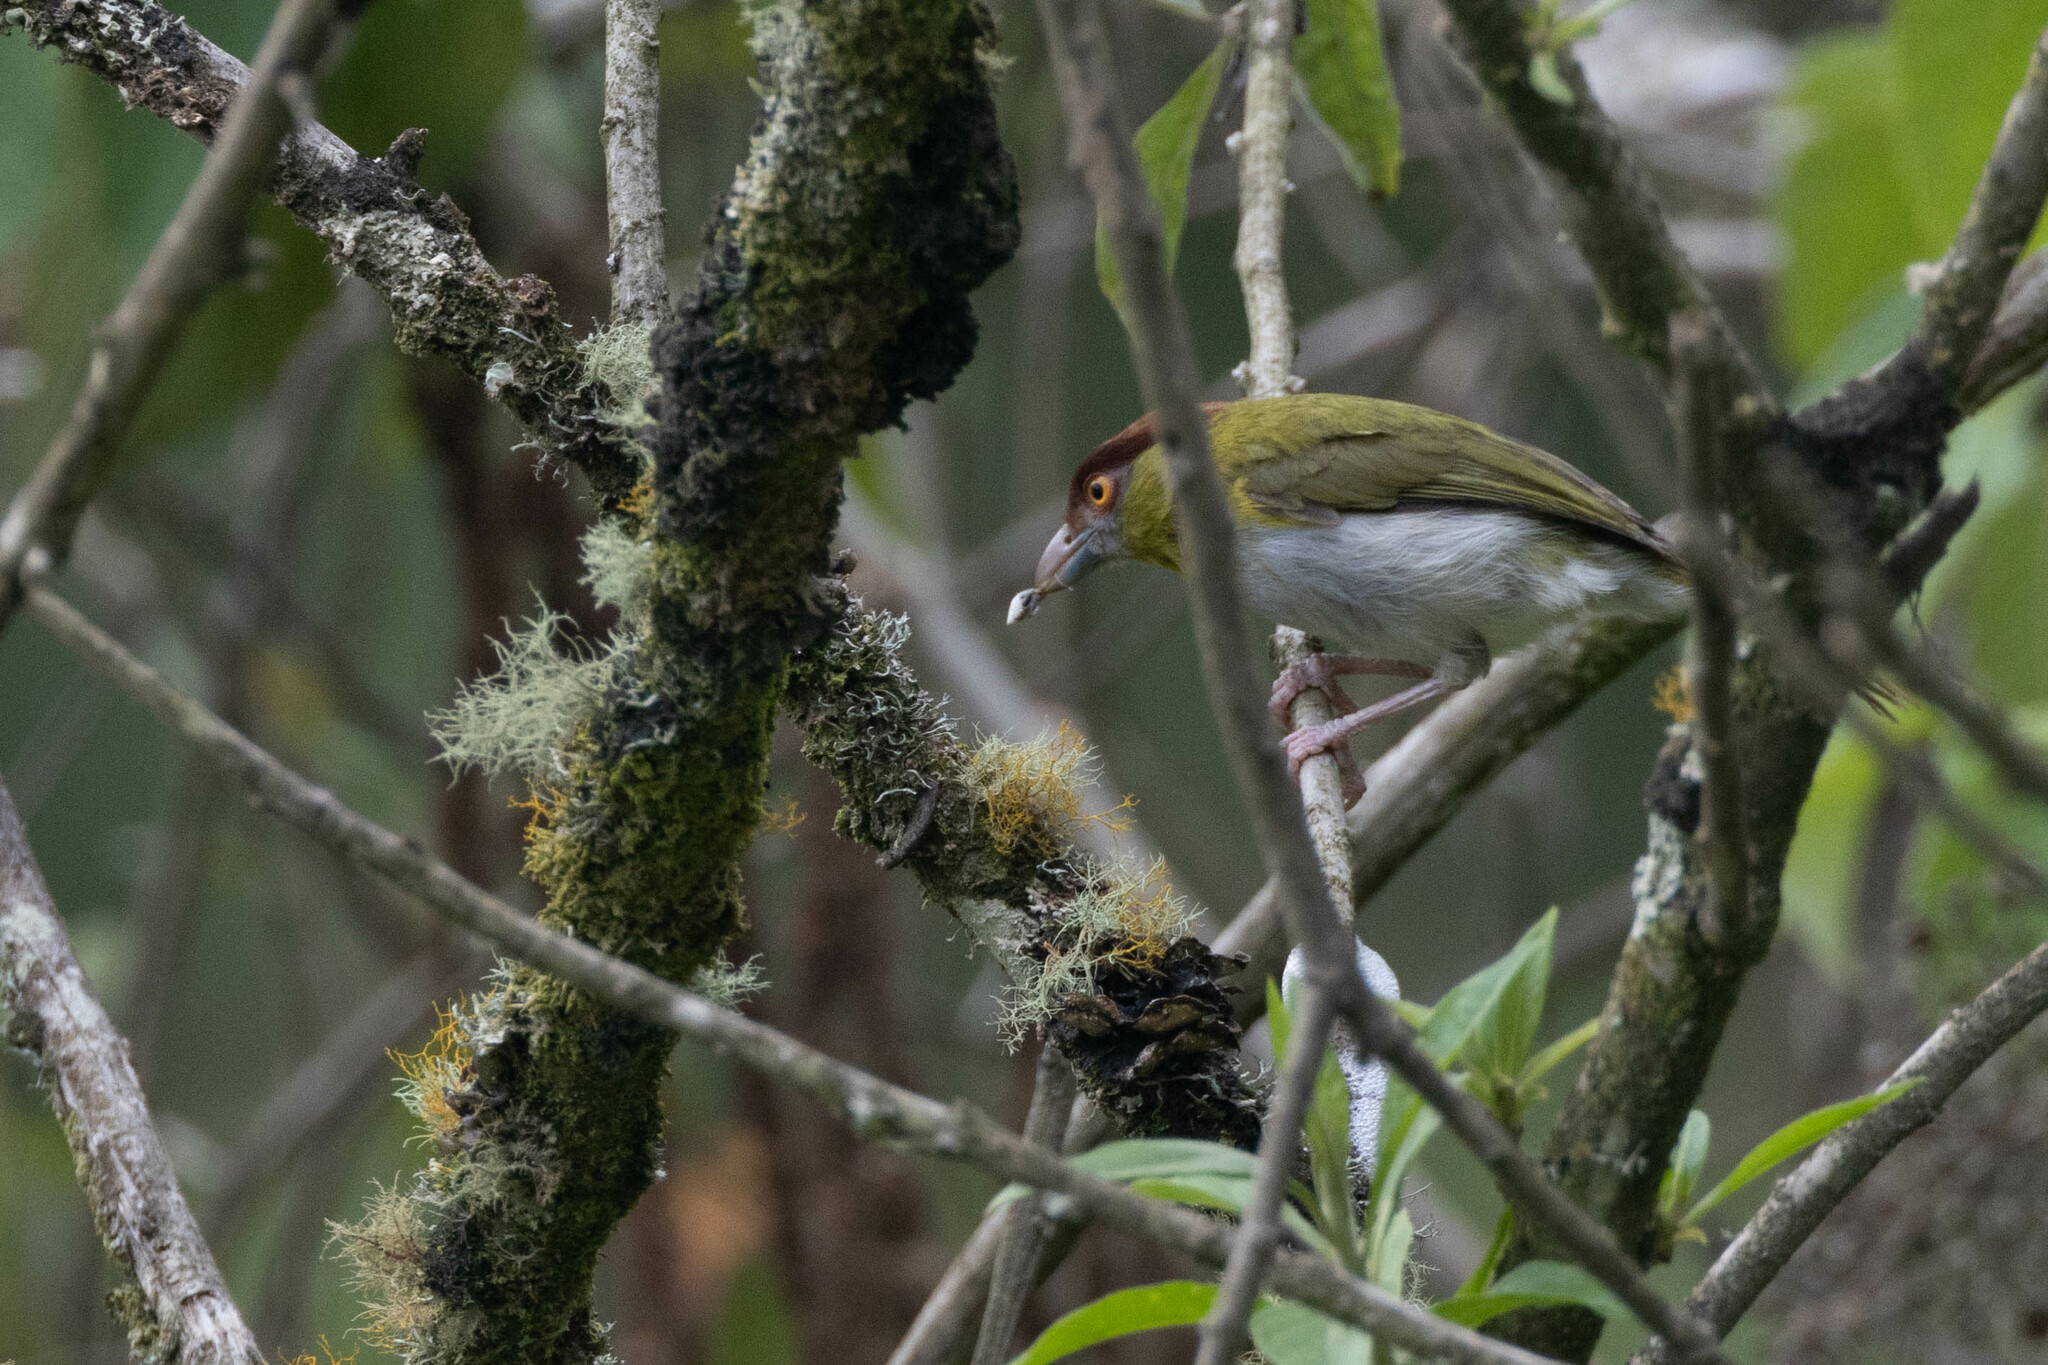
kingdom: Animalia
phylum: Chordata
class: Aves
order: Passeriformes
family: Vireonidae
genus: Cyclarhis
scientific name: Cyclarhis gujanensis
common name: Rufous-browed peppershrike
